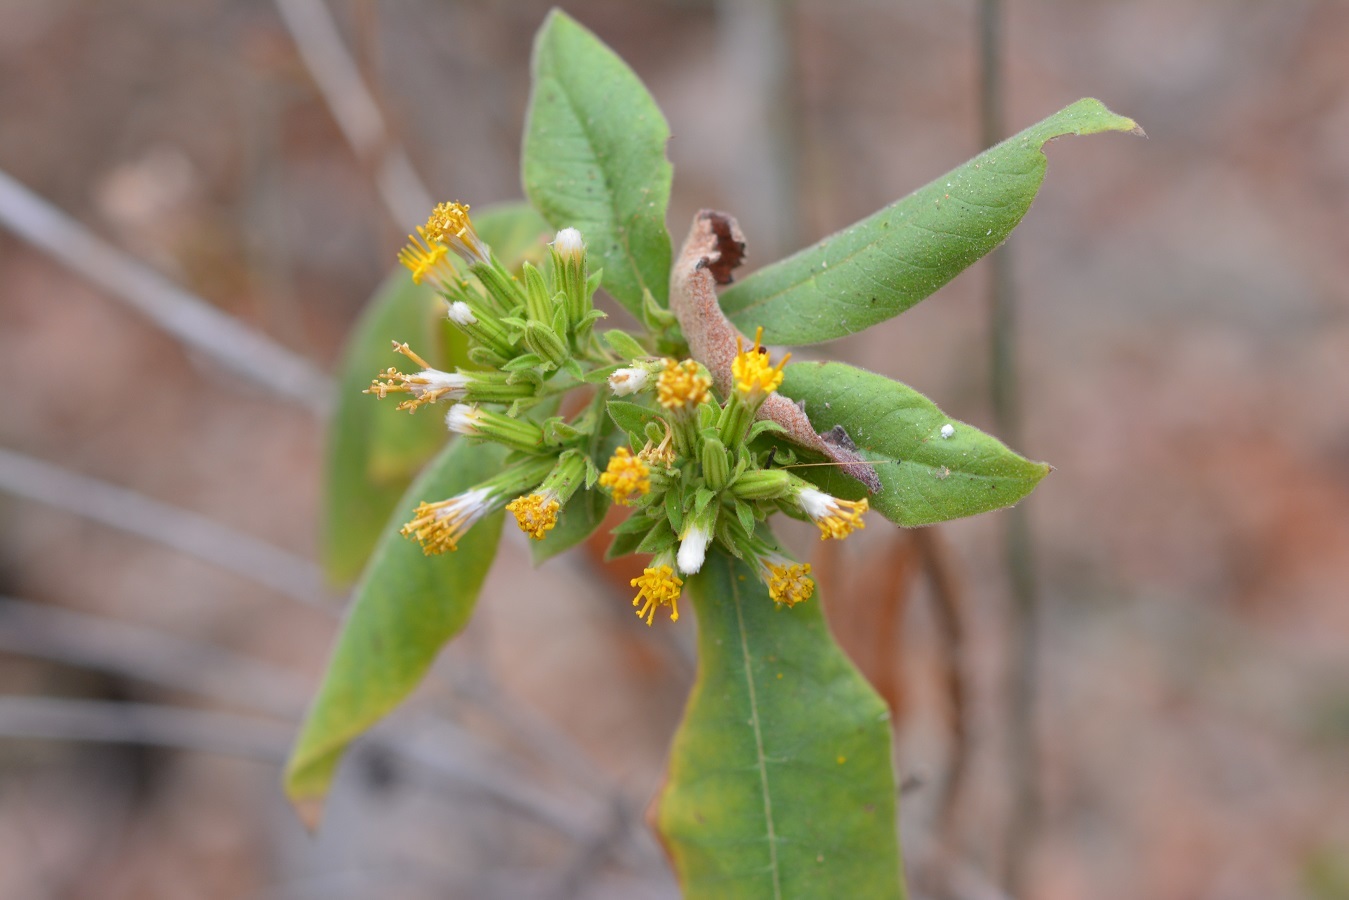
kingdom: Plantae
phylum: Tracheophyta
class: Magnoliopsida
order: Asterales
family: Asteraceae
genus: Trixis
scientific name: Trixis chiapensis
